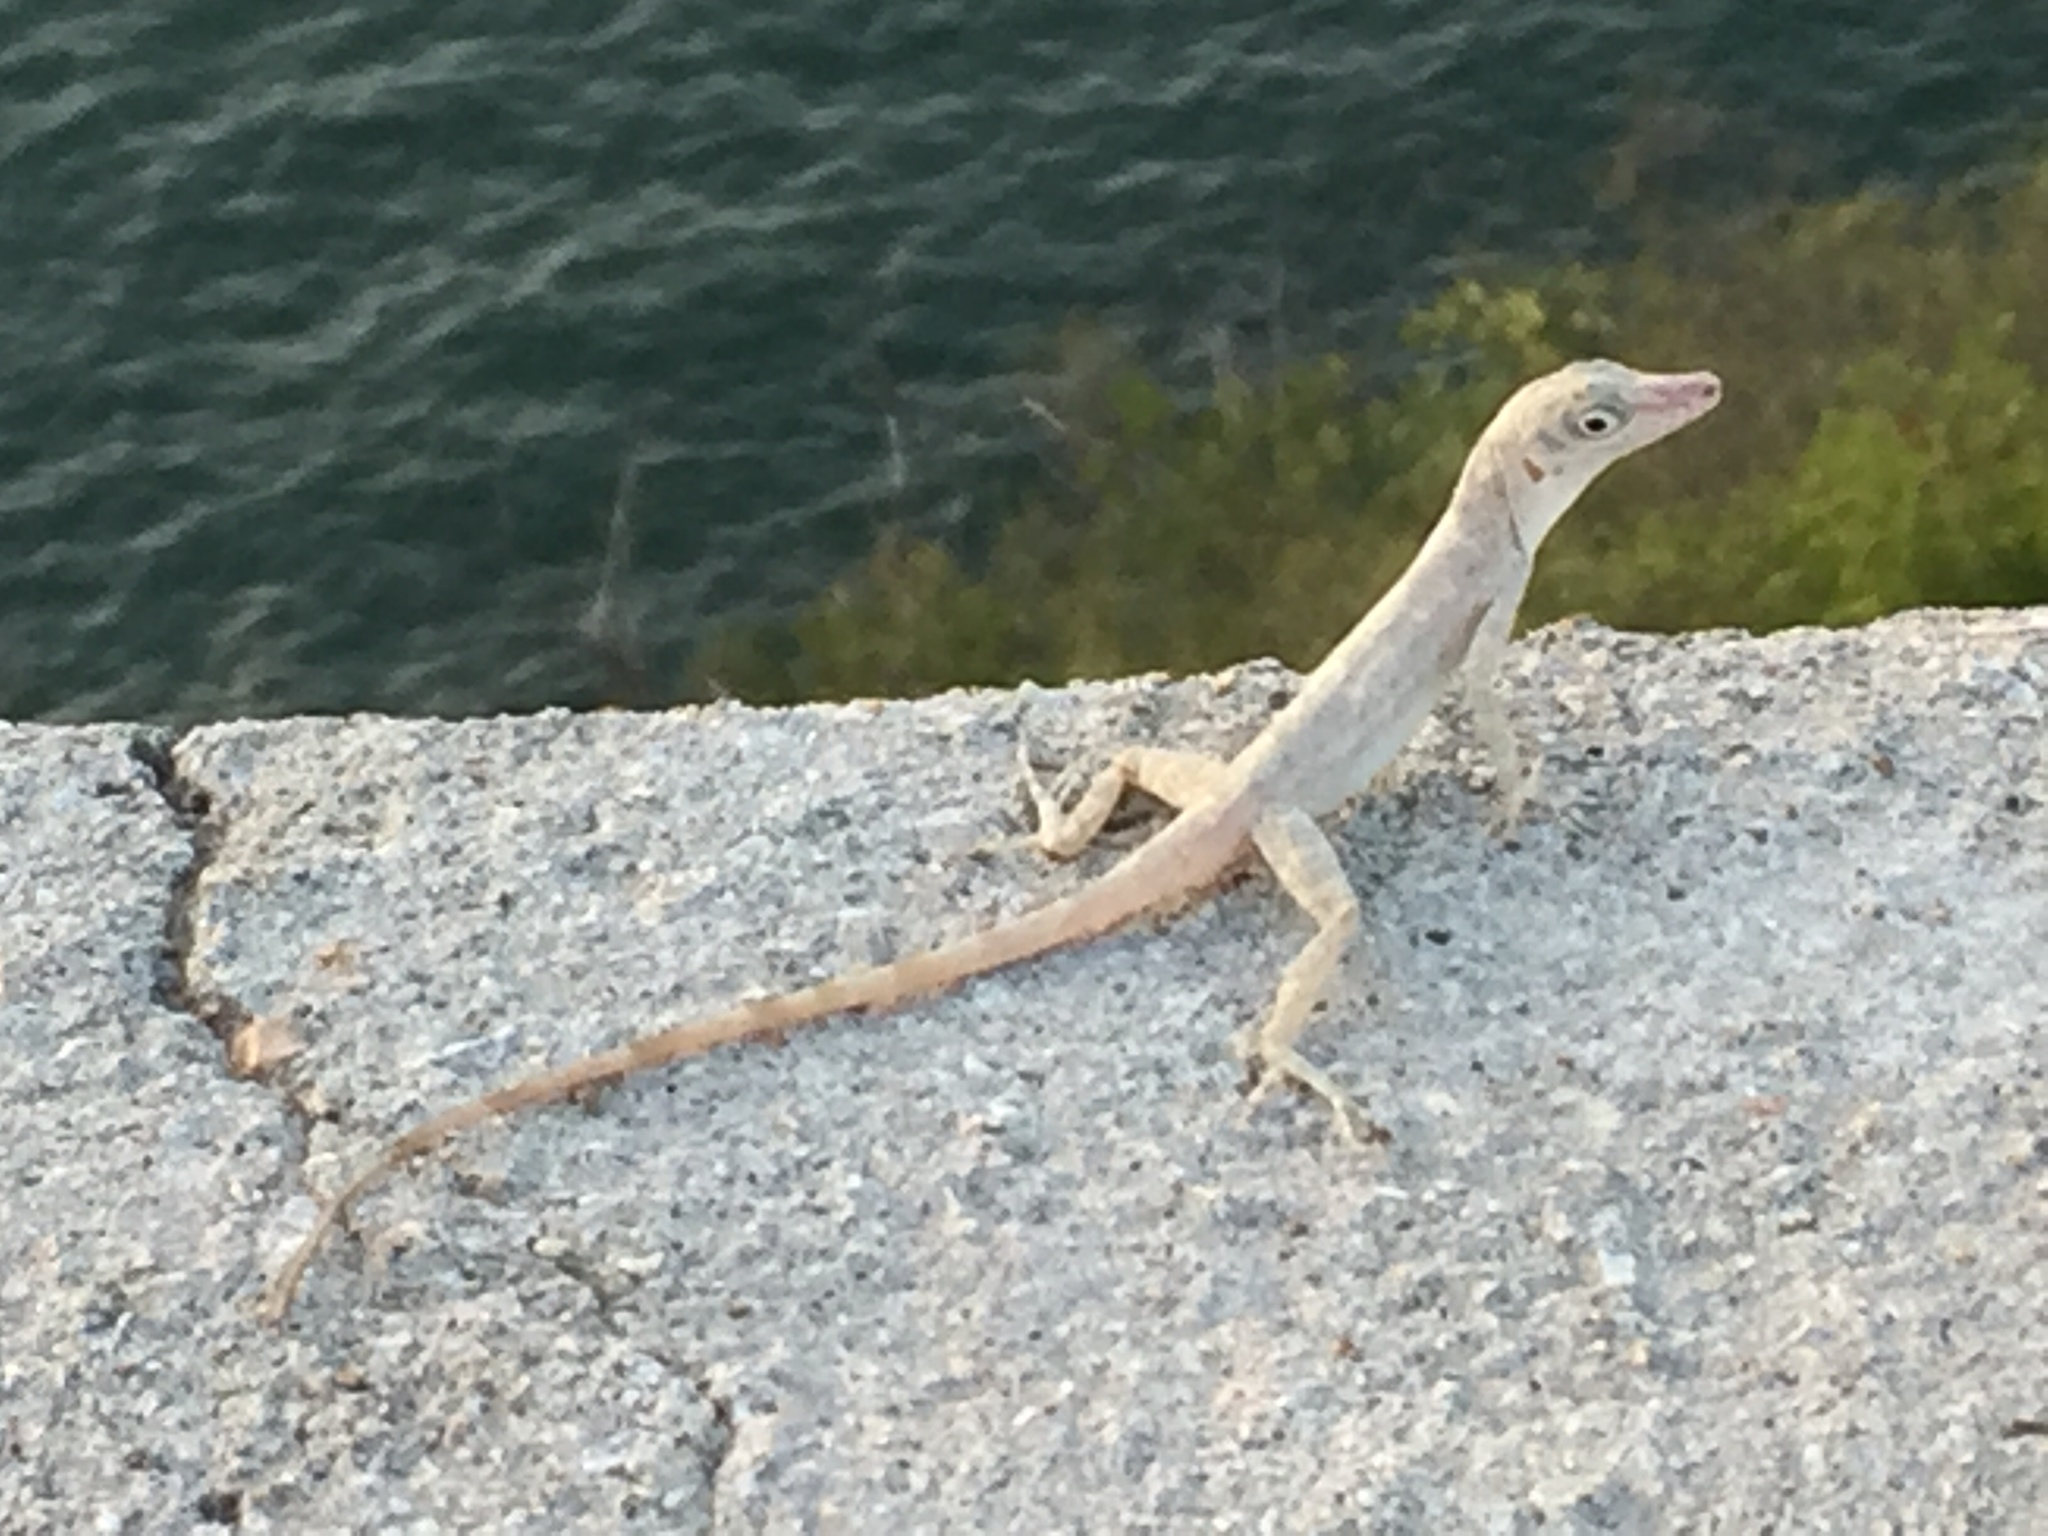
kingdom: Animalia
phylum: Chordata
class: Squamata
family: Dactyloidae
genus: Anolis
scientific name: Anolis argenteolus
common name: Guantanamo anole
